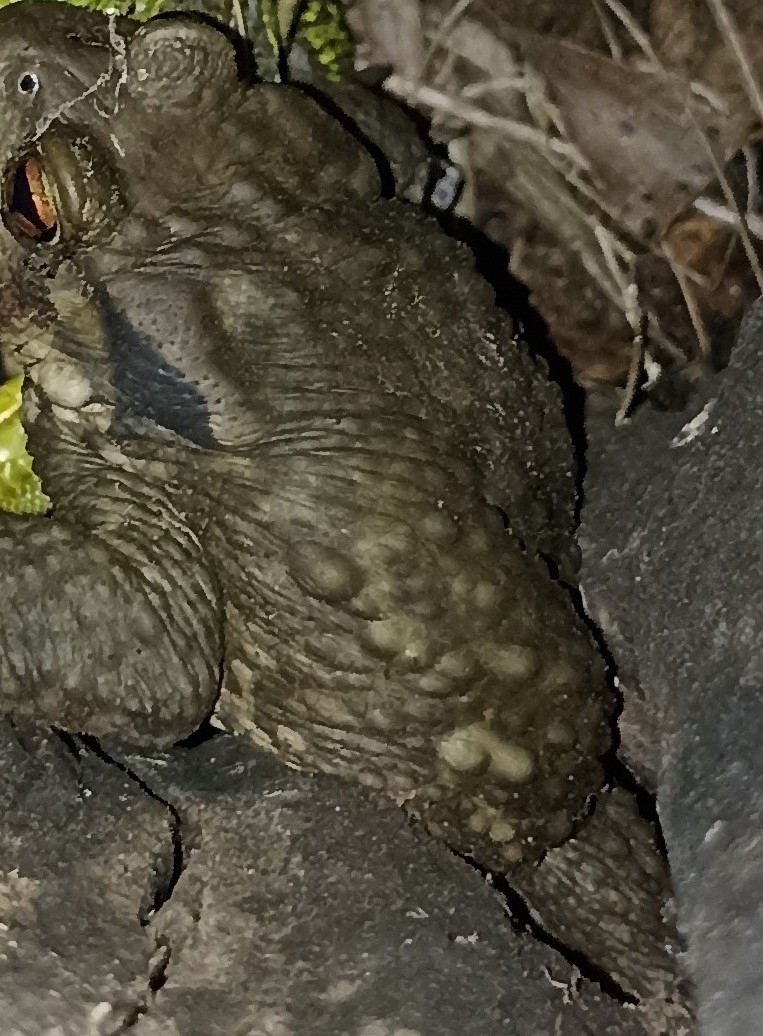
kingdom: Animalia
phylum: Chordata
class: Amphibia
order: Anura
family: Bufonidae
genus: Bufo
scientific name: Bufo spinosus
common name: Western common toad
